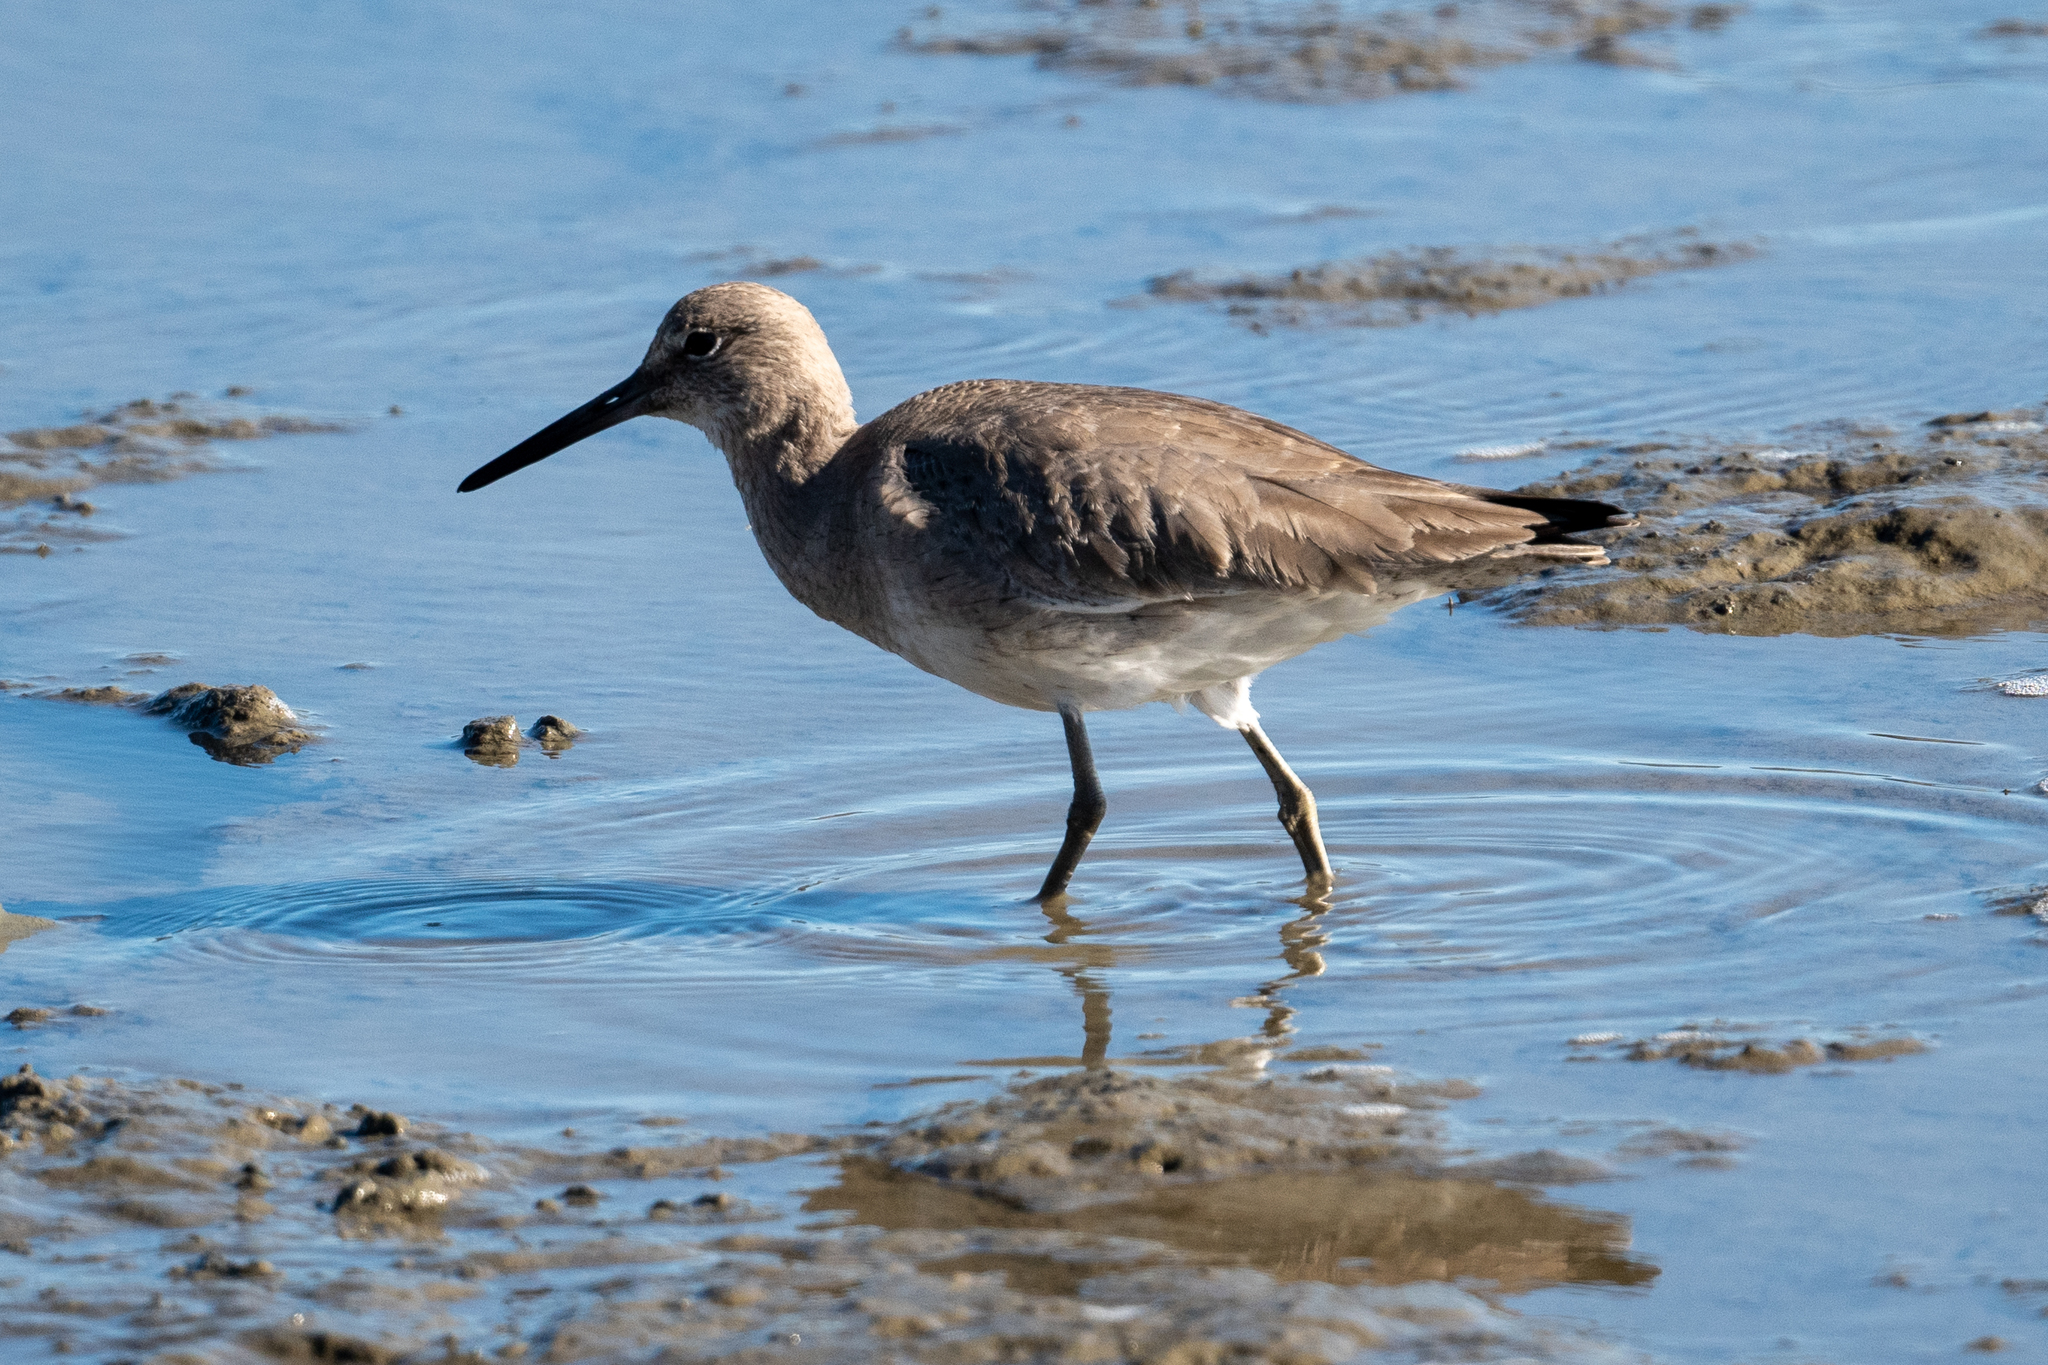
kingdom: Animalia
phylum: Chordata
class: Aves
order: Charadriiformes
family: Scolopacidae
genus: Tringa
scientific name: Tringa semipalmata
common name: Willet
